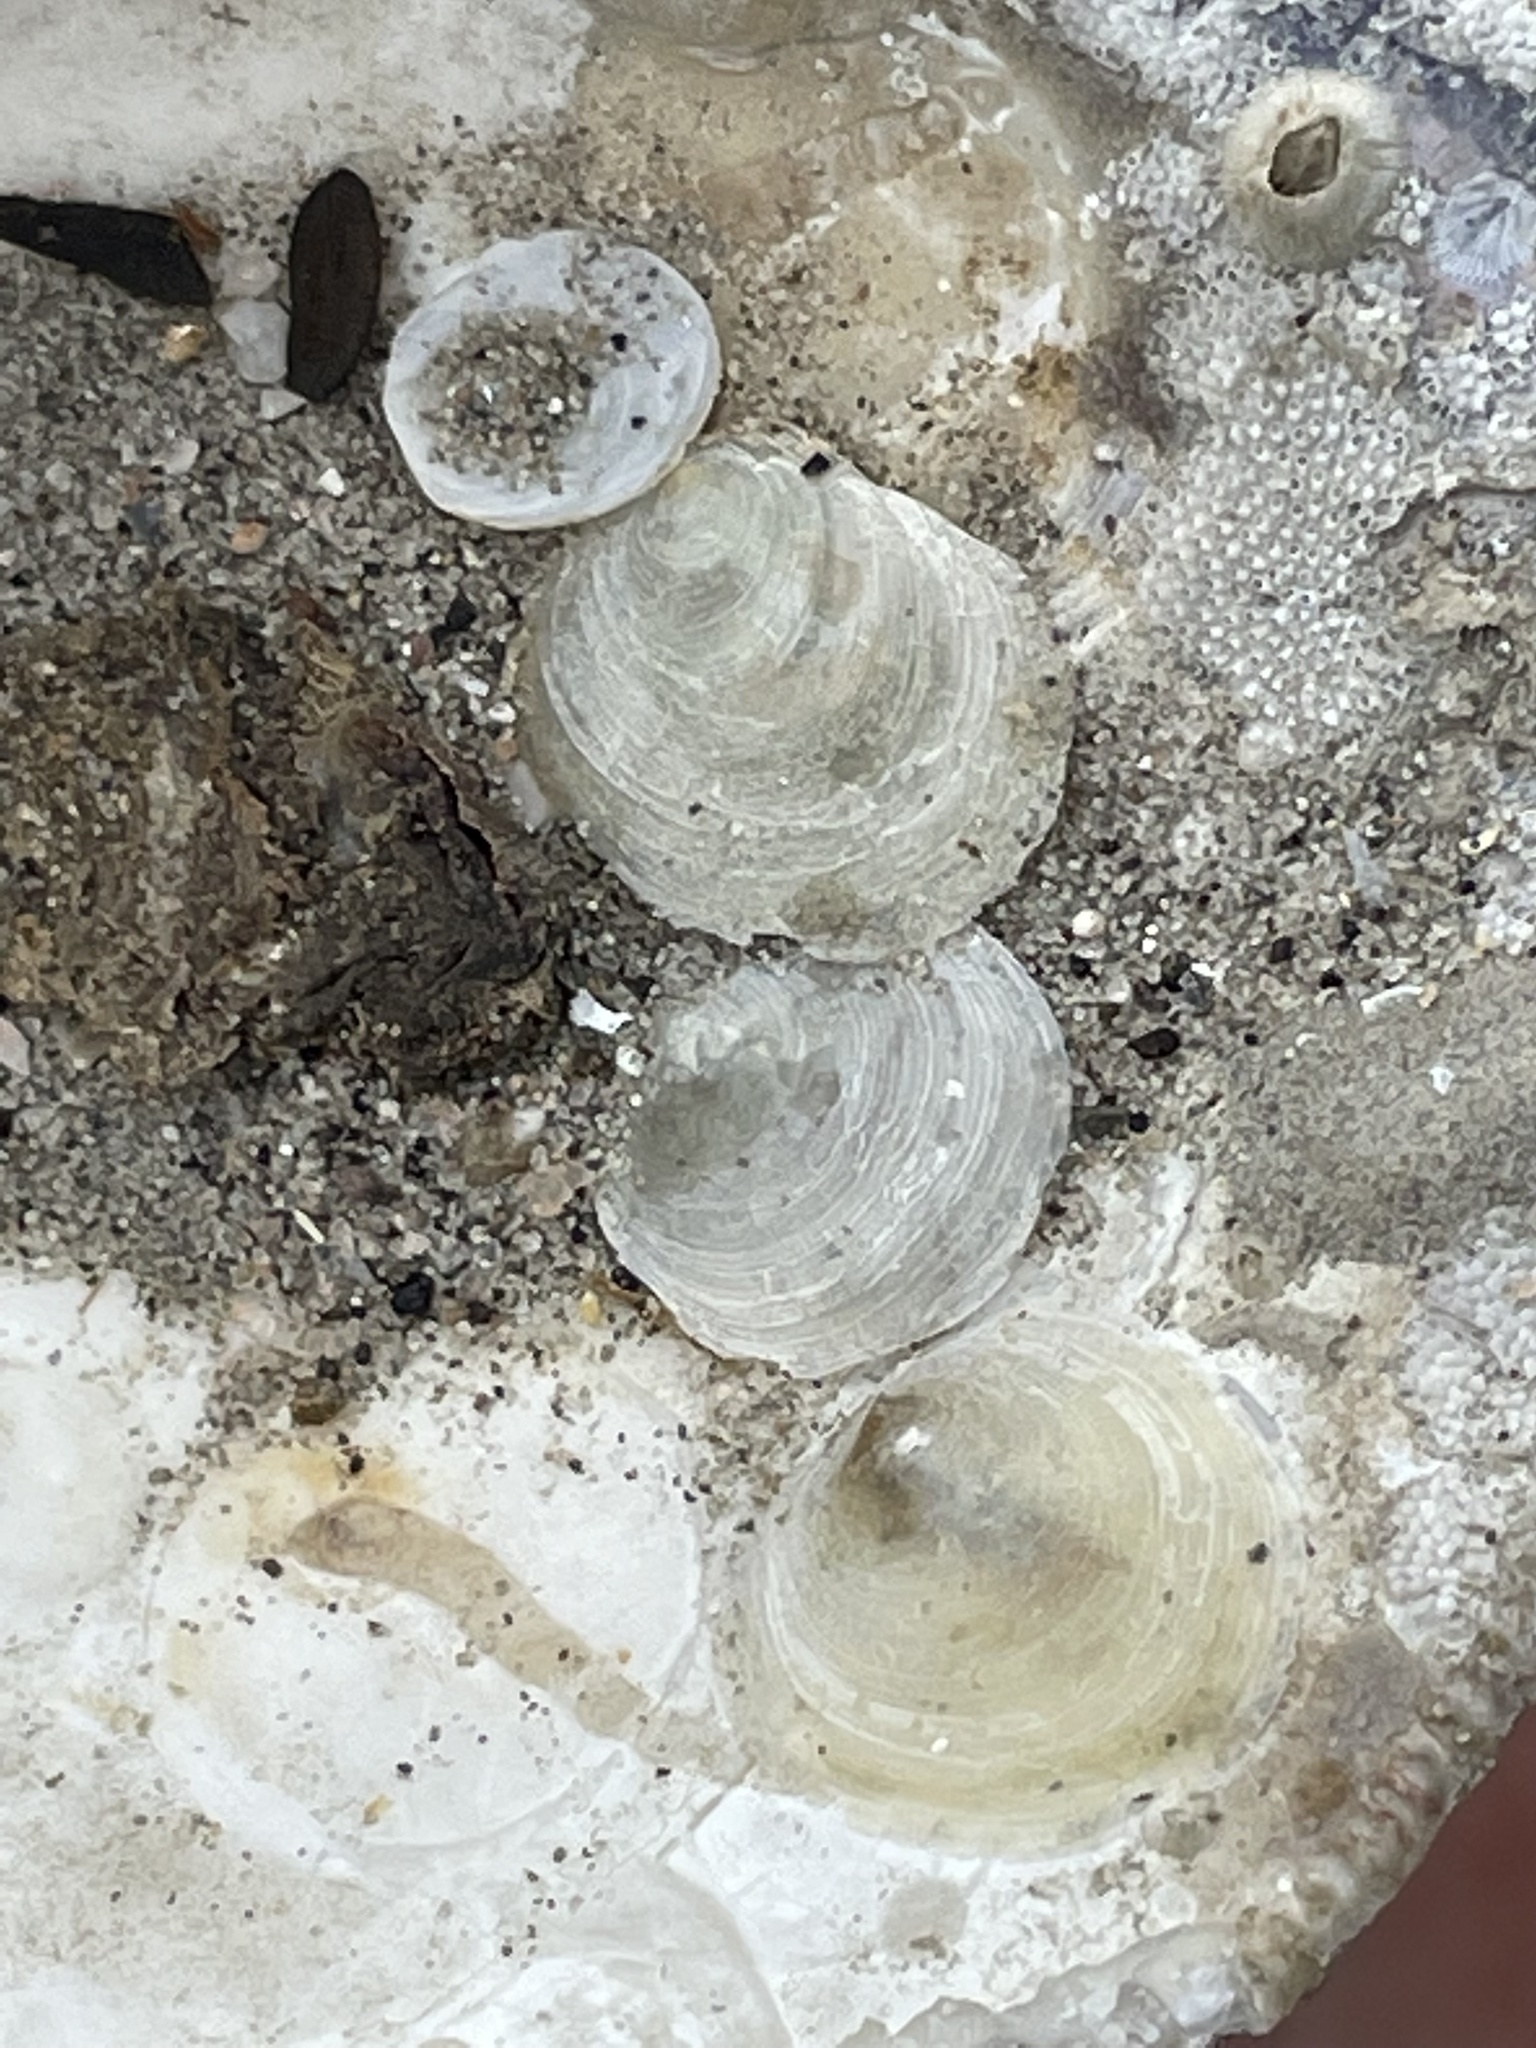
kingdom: Animalia
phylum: Mollusca
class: Bivalvia
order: Pectinida
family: Anomiidae
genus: Anomia
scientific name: Anomia simplex
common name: Common jingle shell
